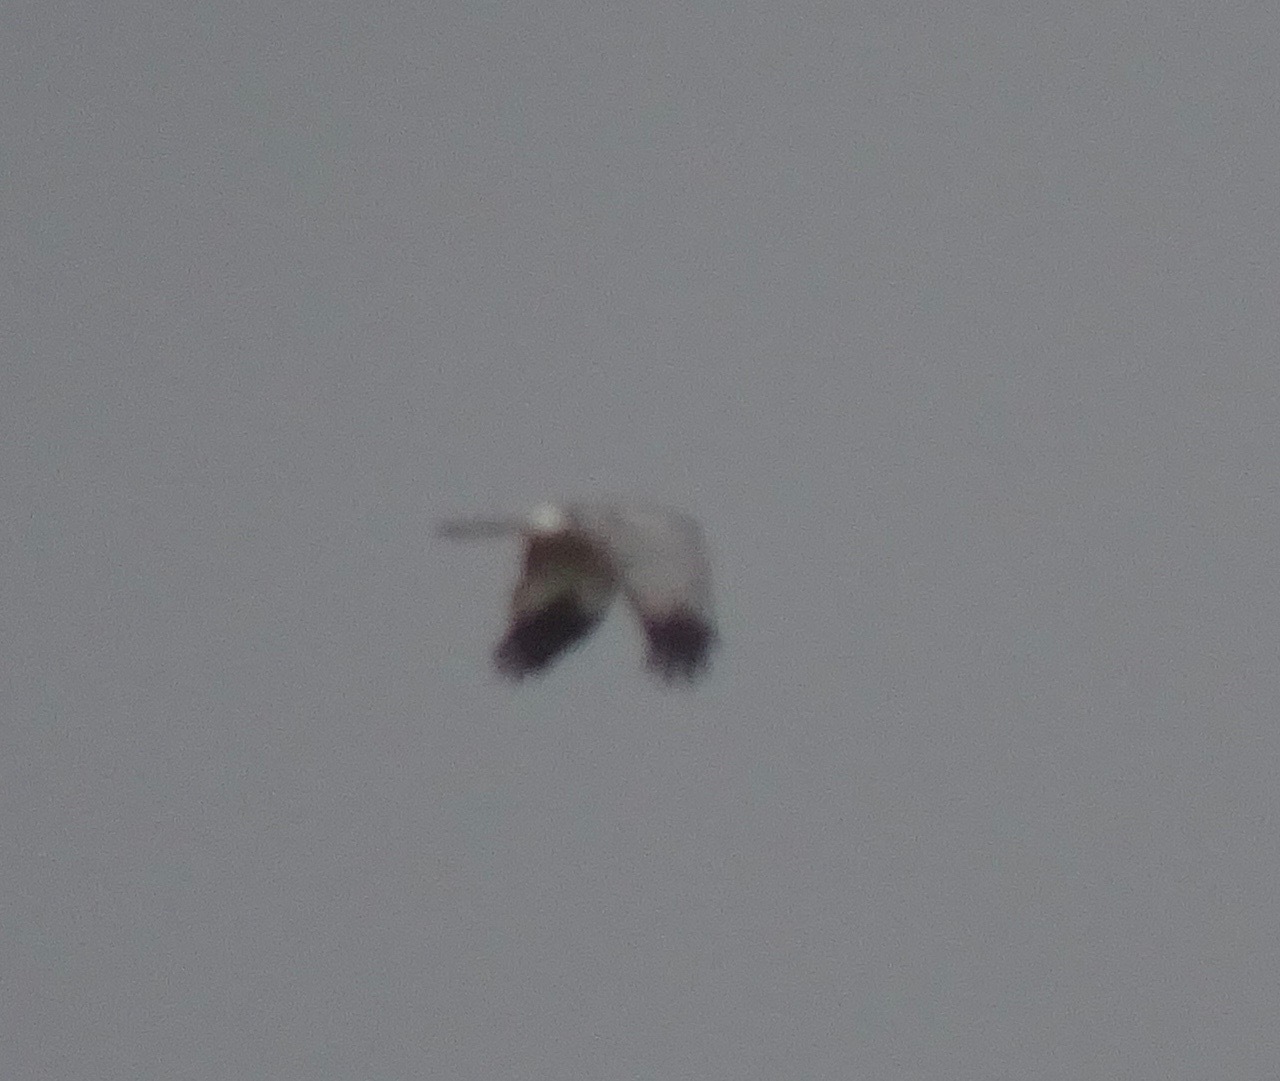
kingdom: Animalia
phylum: Chordata
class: Aves
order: Accipitriformes
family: Accipitridae
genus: Circus
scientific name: Circus cyaneus
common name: Hen harrier
